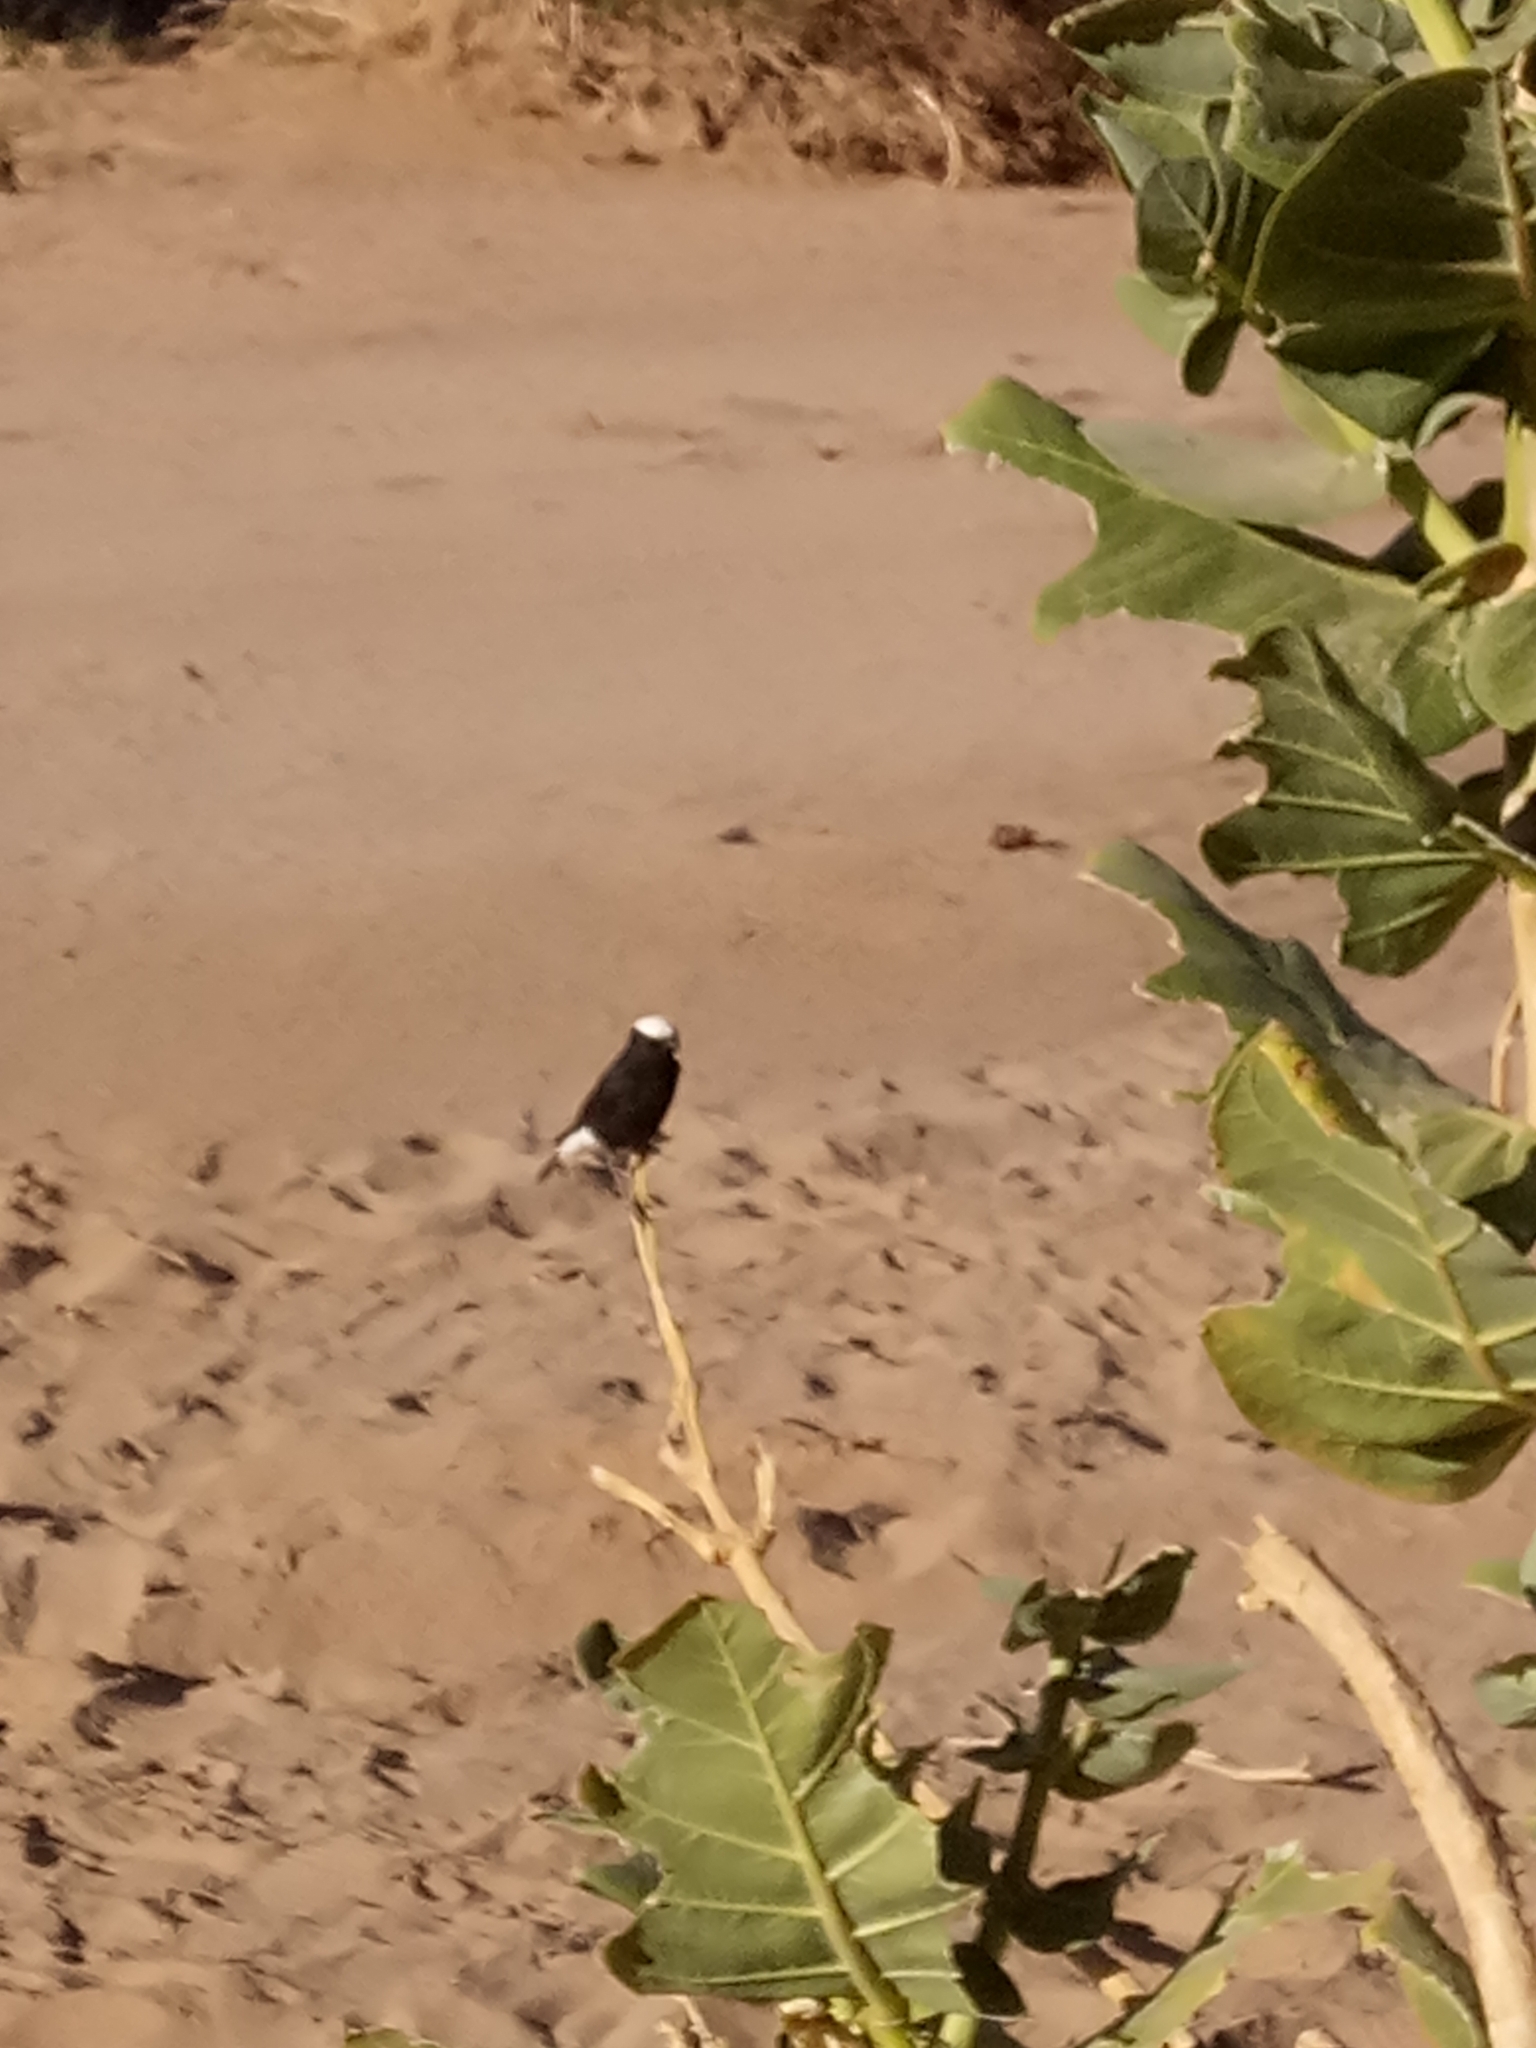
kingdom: Animalia
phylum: Chordata
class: Aves
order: Passeriformes
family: Muscicapidae
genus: Oenanthe
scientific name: Oenanthe leucopyga
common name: White-crowned wheatear
